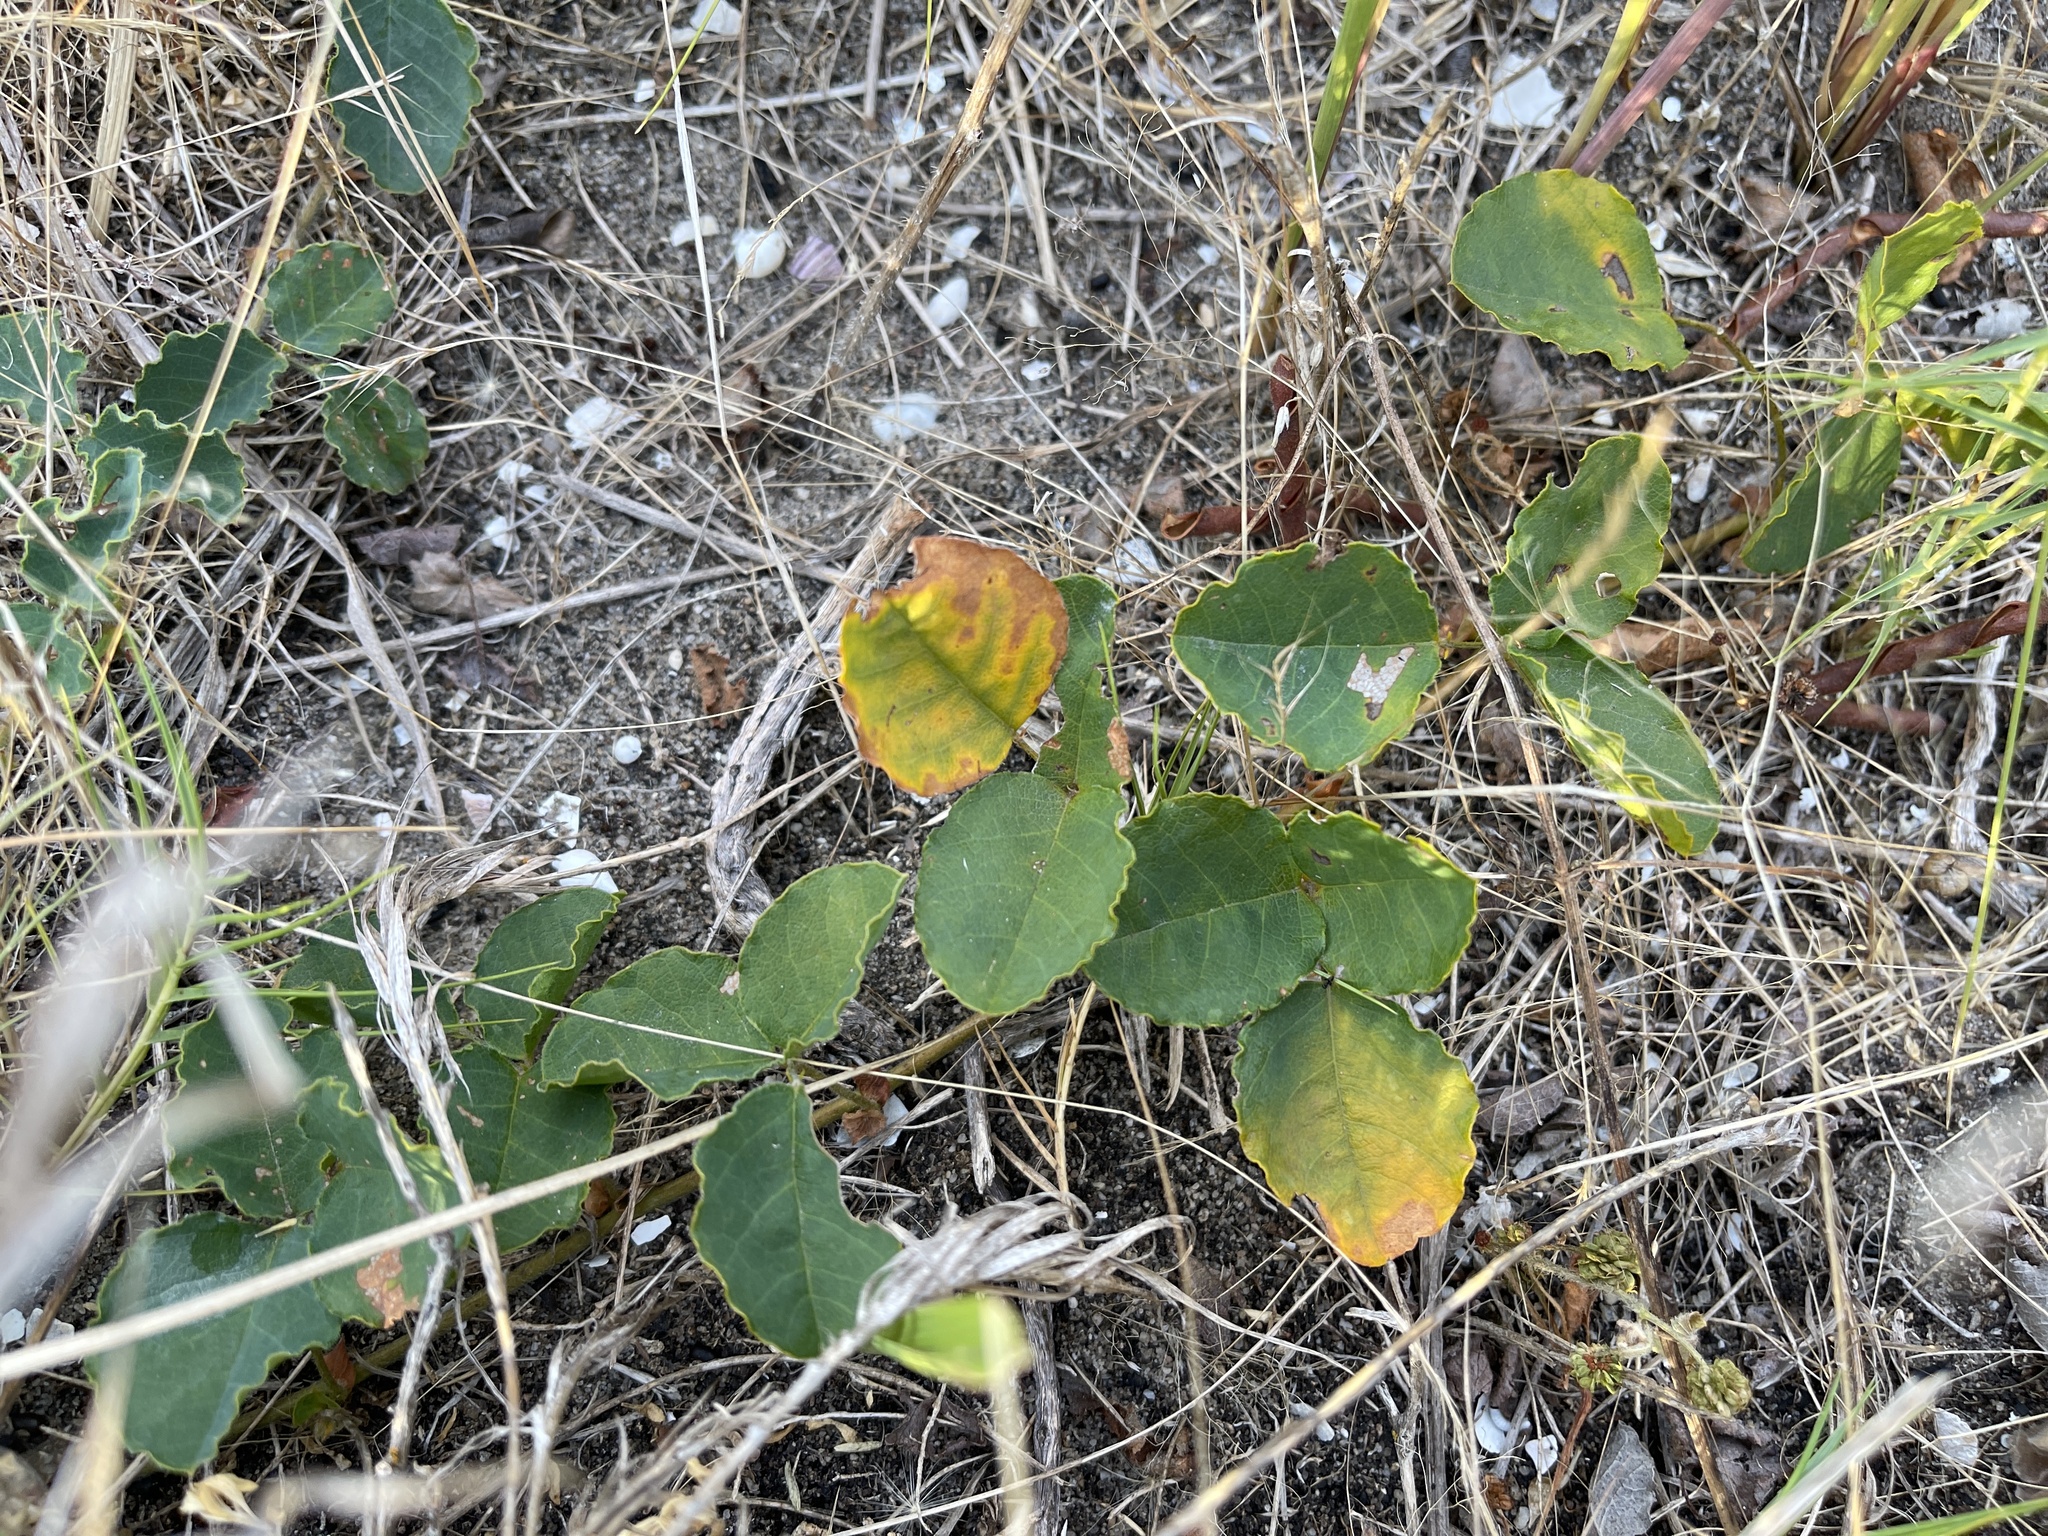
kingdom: Plantae
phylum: Tracheophyta
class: Magnoliopsida
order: Fabales
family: Fabaceae
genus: Kennedia
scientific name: Kennedia prostrata
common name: Running-postman
